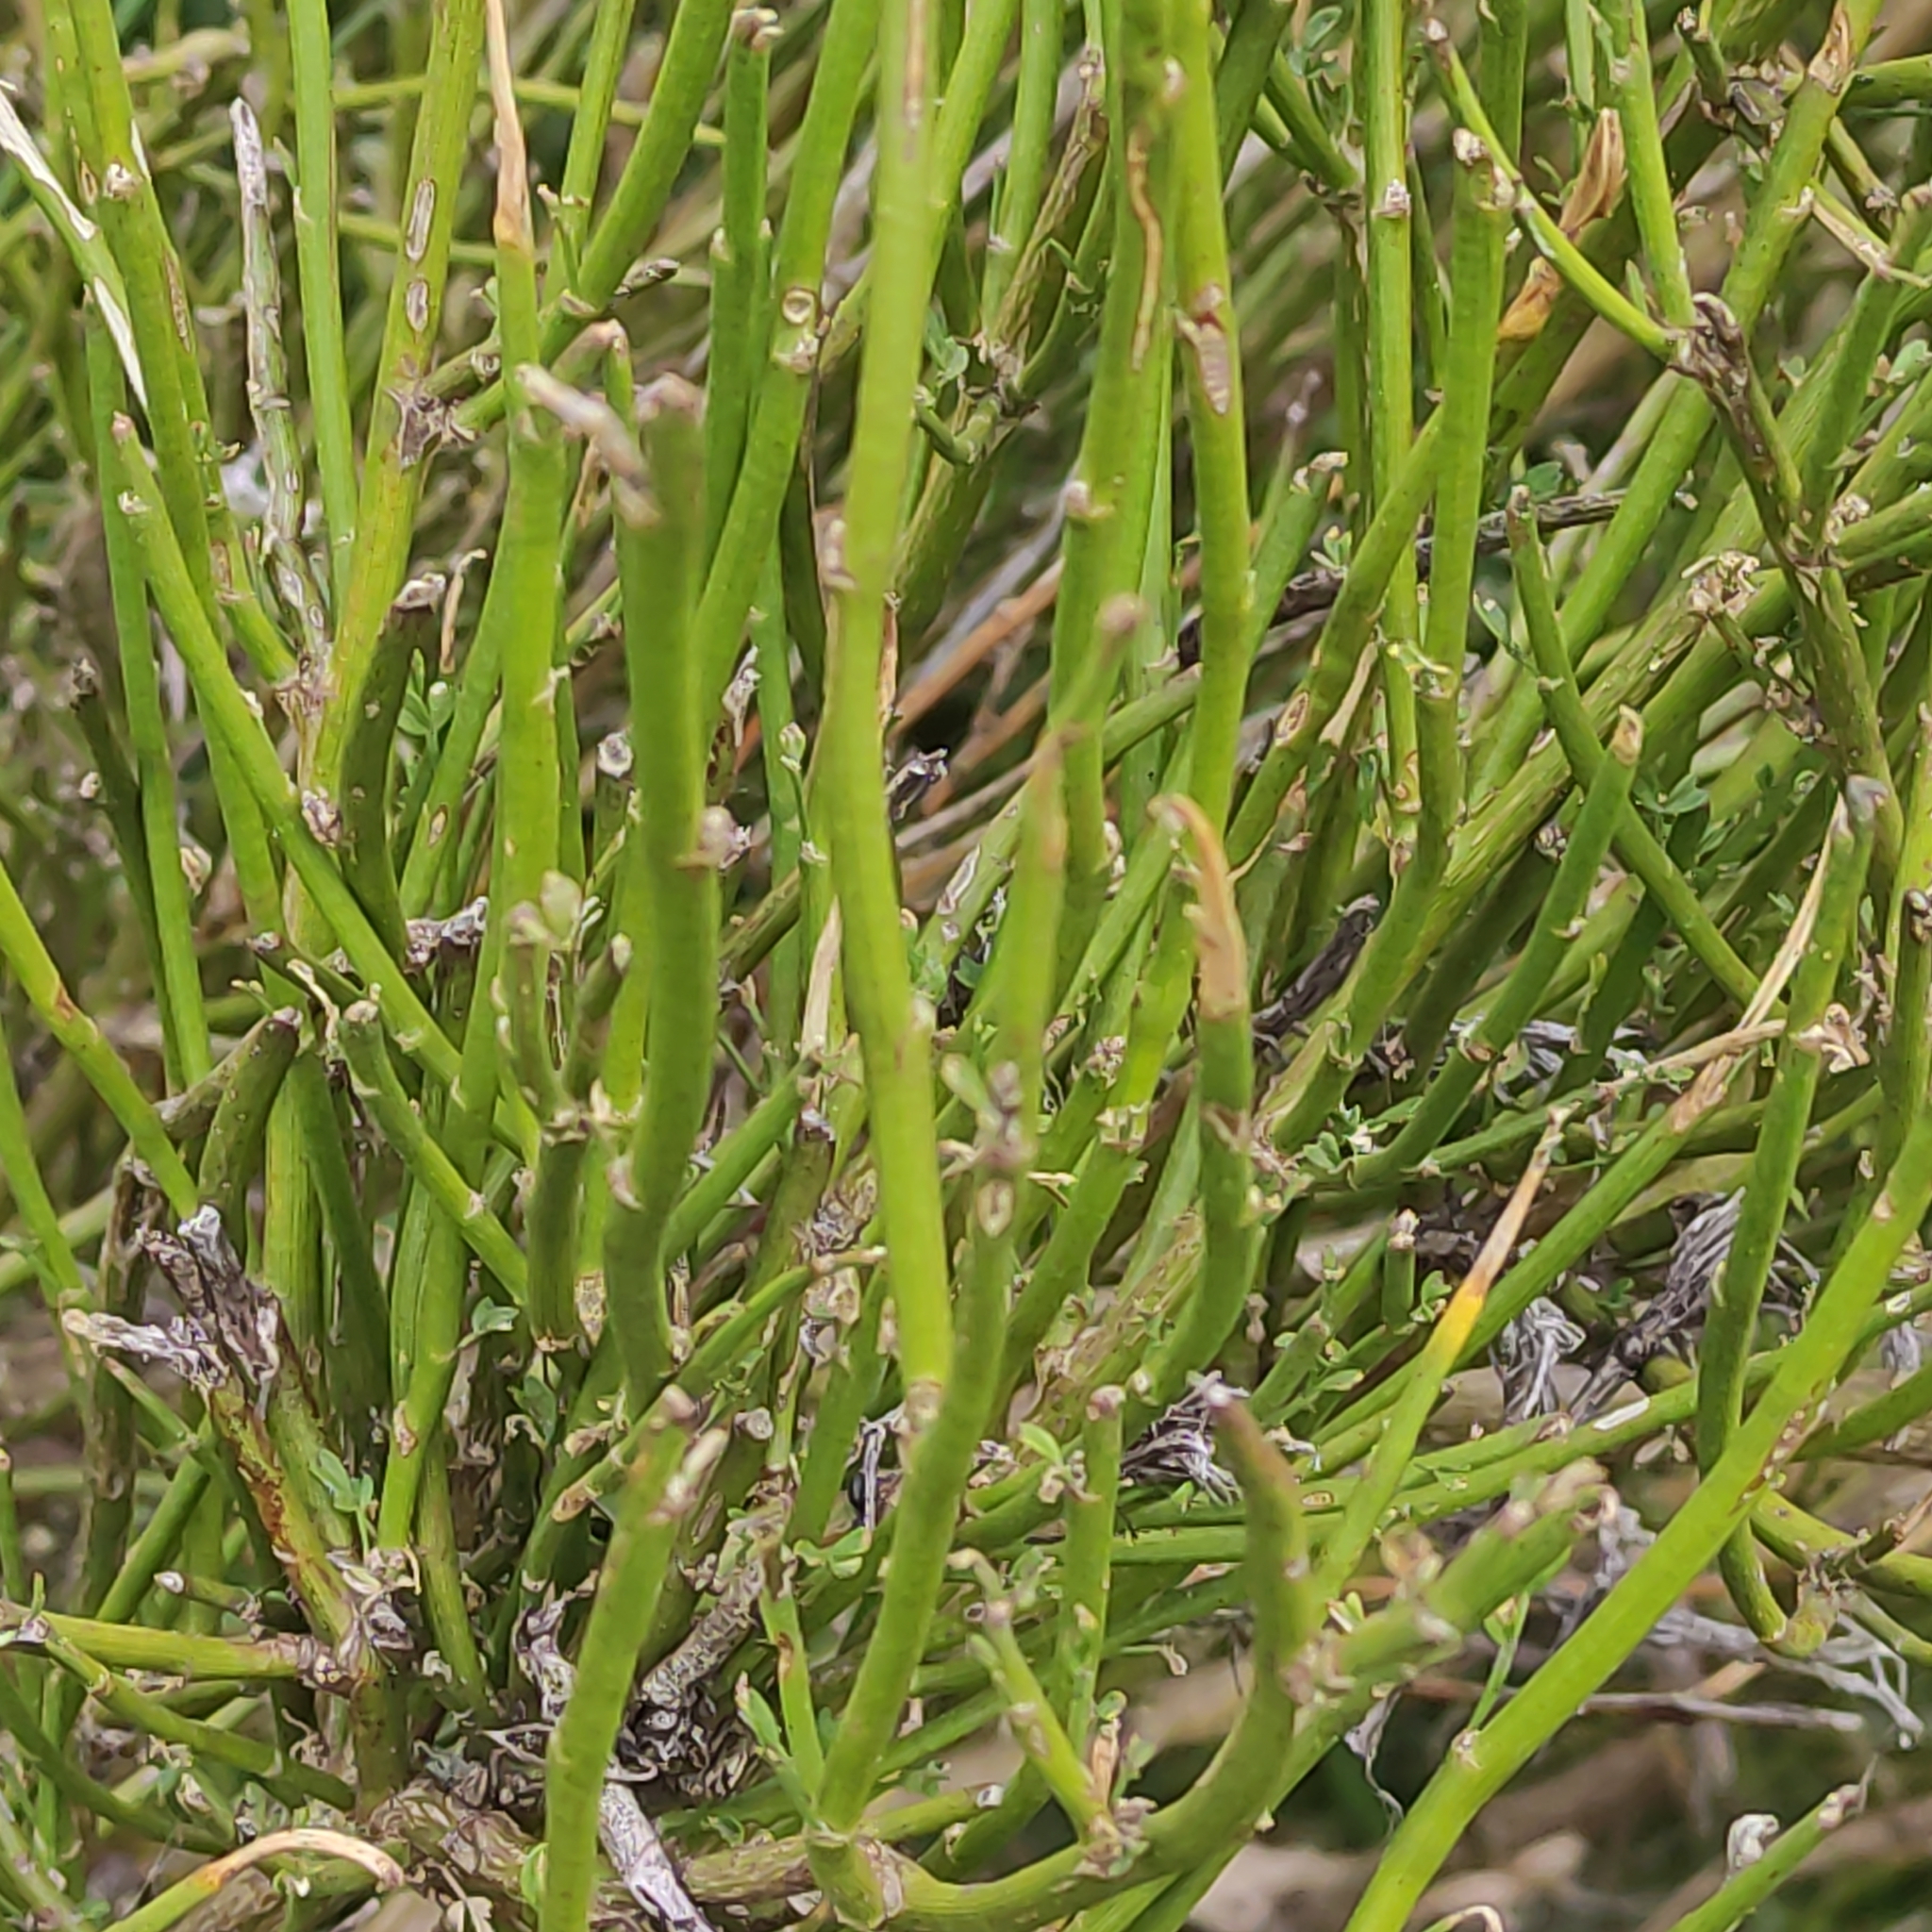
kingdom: Plantae
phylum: Tracheophyta
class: Magnoliopsida
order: Fabales
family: Fabaceae
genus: Carmichaelia
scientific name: Carmichaelia australis
